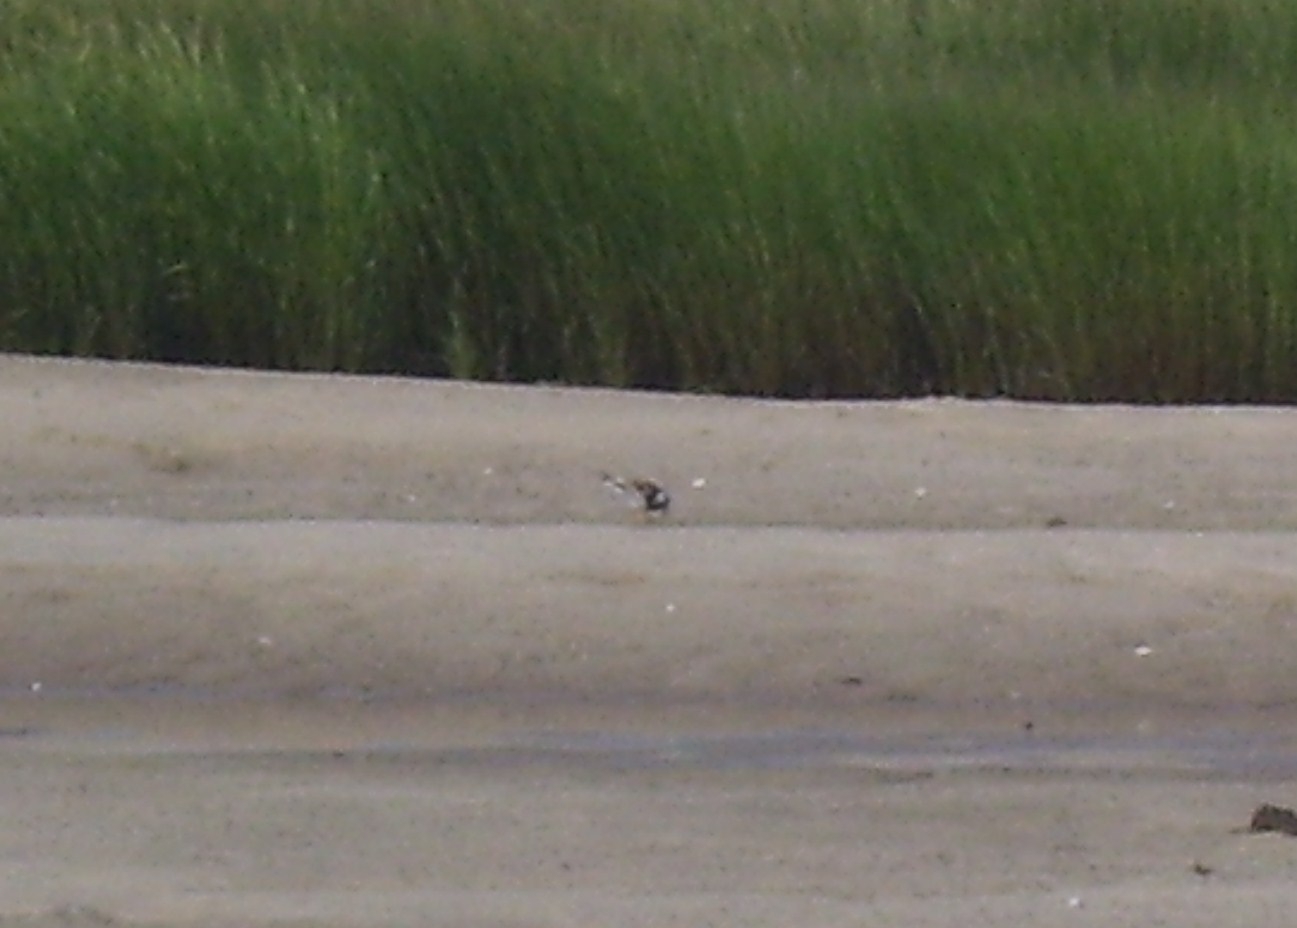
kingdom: Animalia
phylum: Chordata
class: Aves
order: Charadriiformes
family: Scolopacidae
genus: Arenaria
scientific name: Arenaria interpres
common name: Ruddy turnstone
